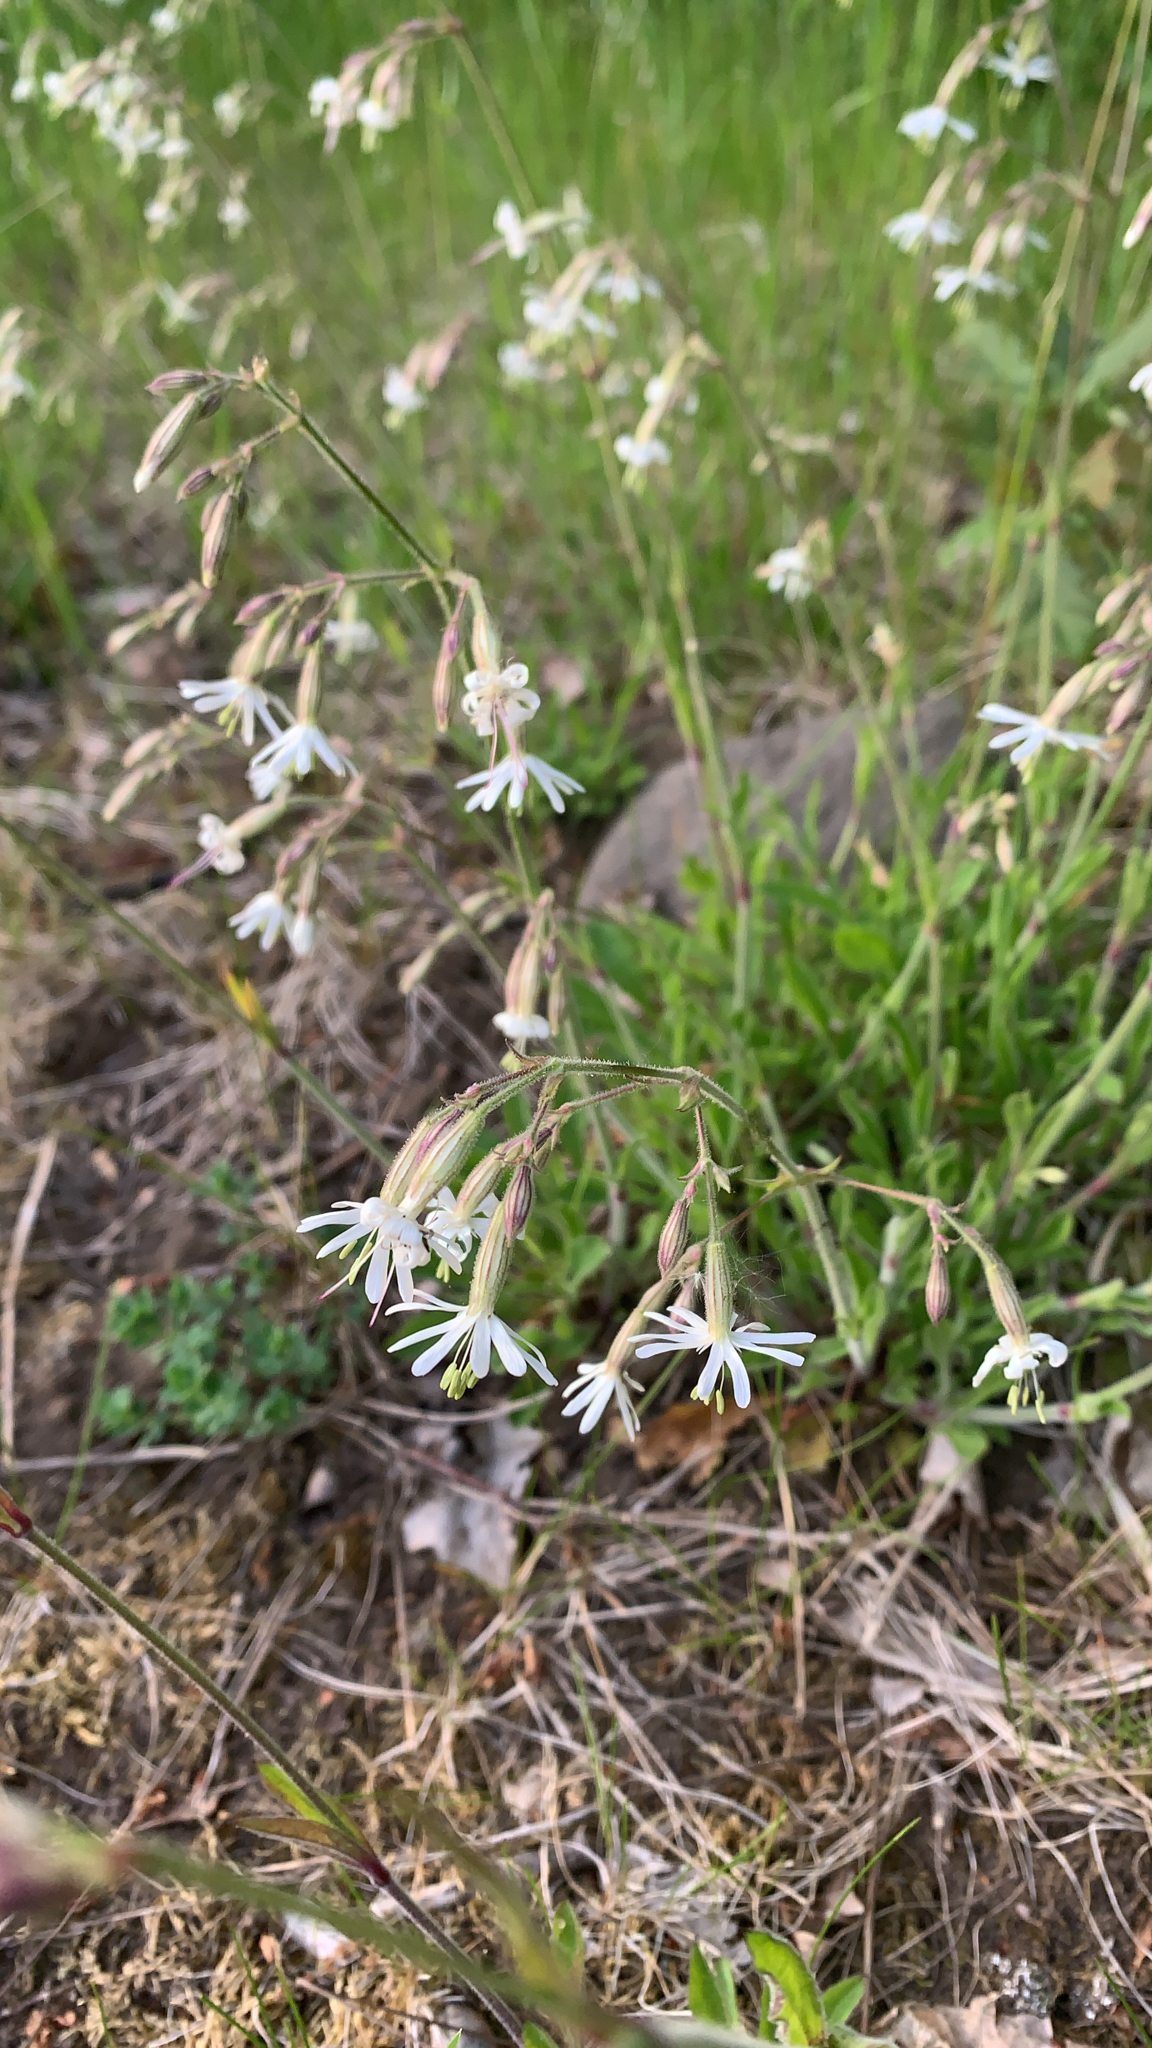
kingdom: Plantae
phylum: Tracheophyta
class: Magnoliopsida
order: Caryophyllales
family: Caryophyllaceae
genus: Silene
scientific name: Silene nutans
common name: Nottingham catchfly
